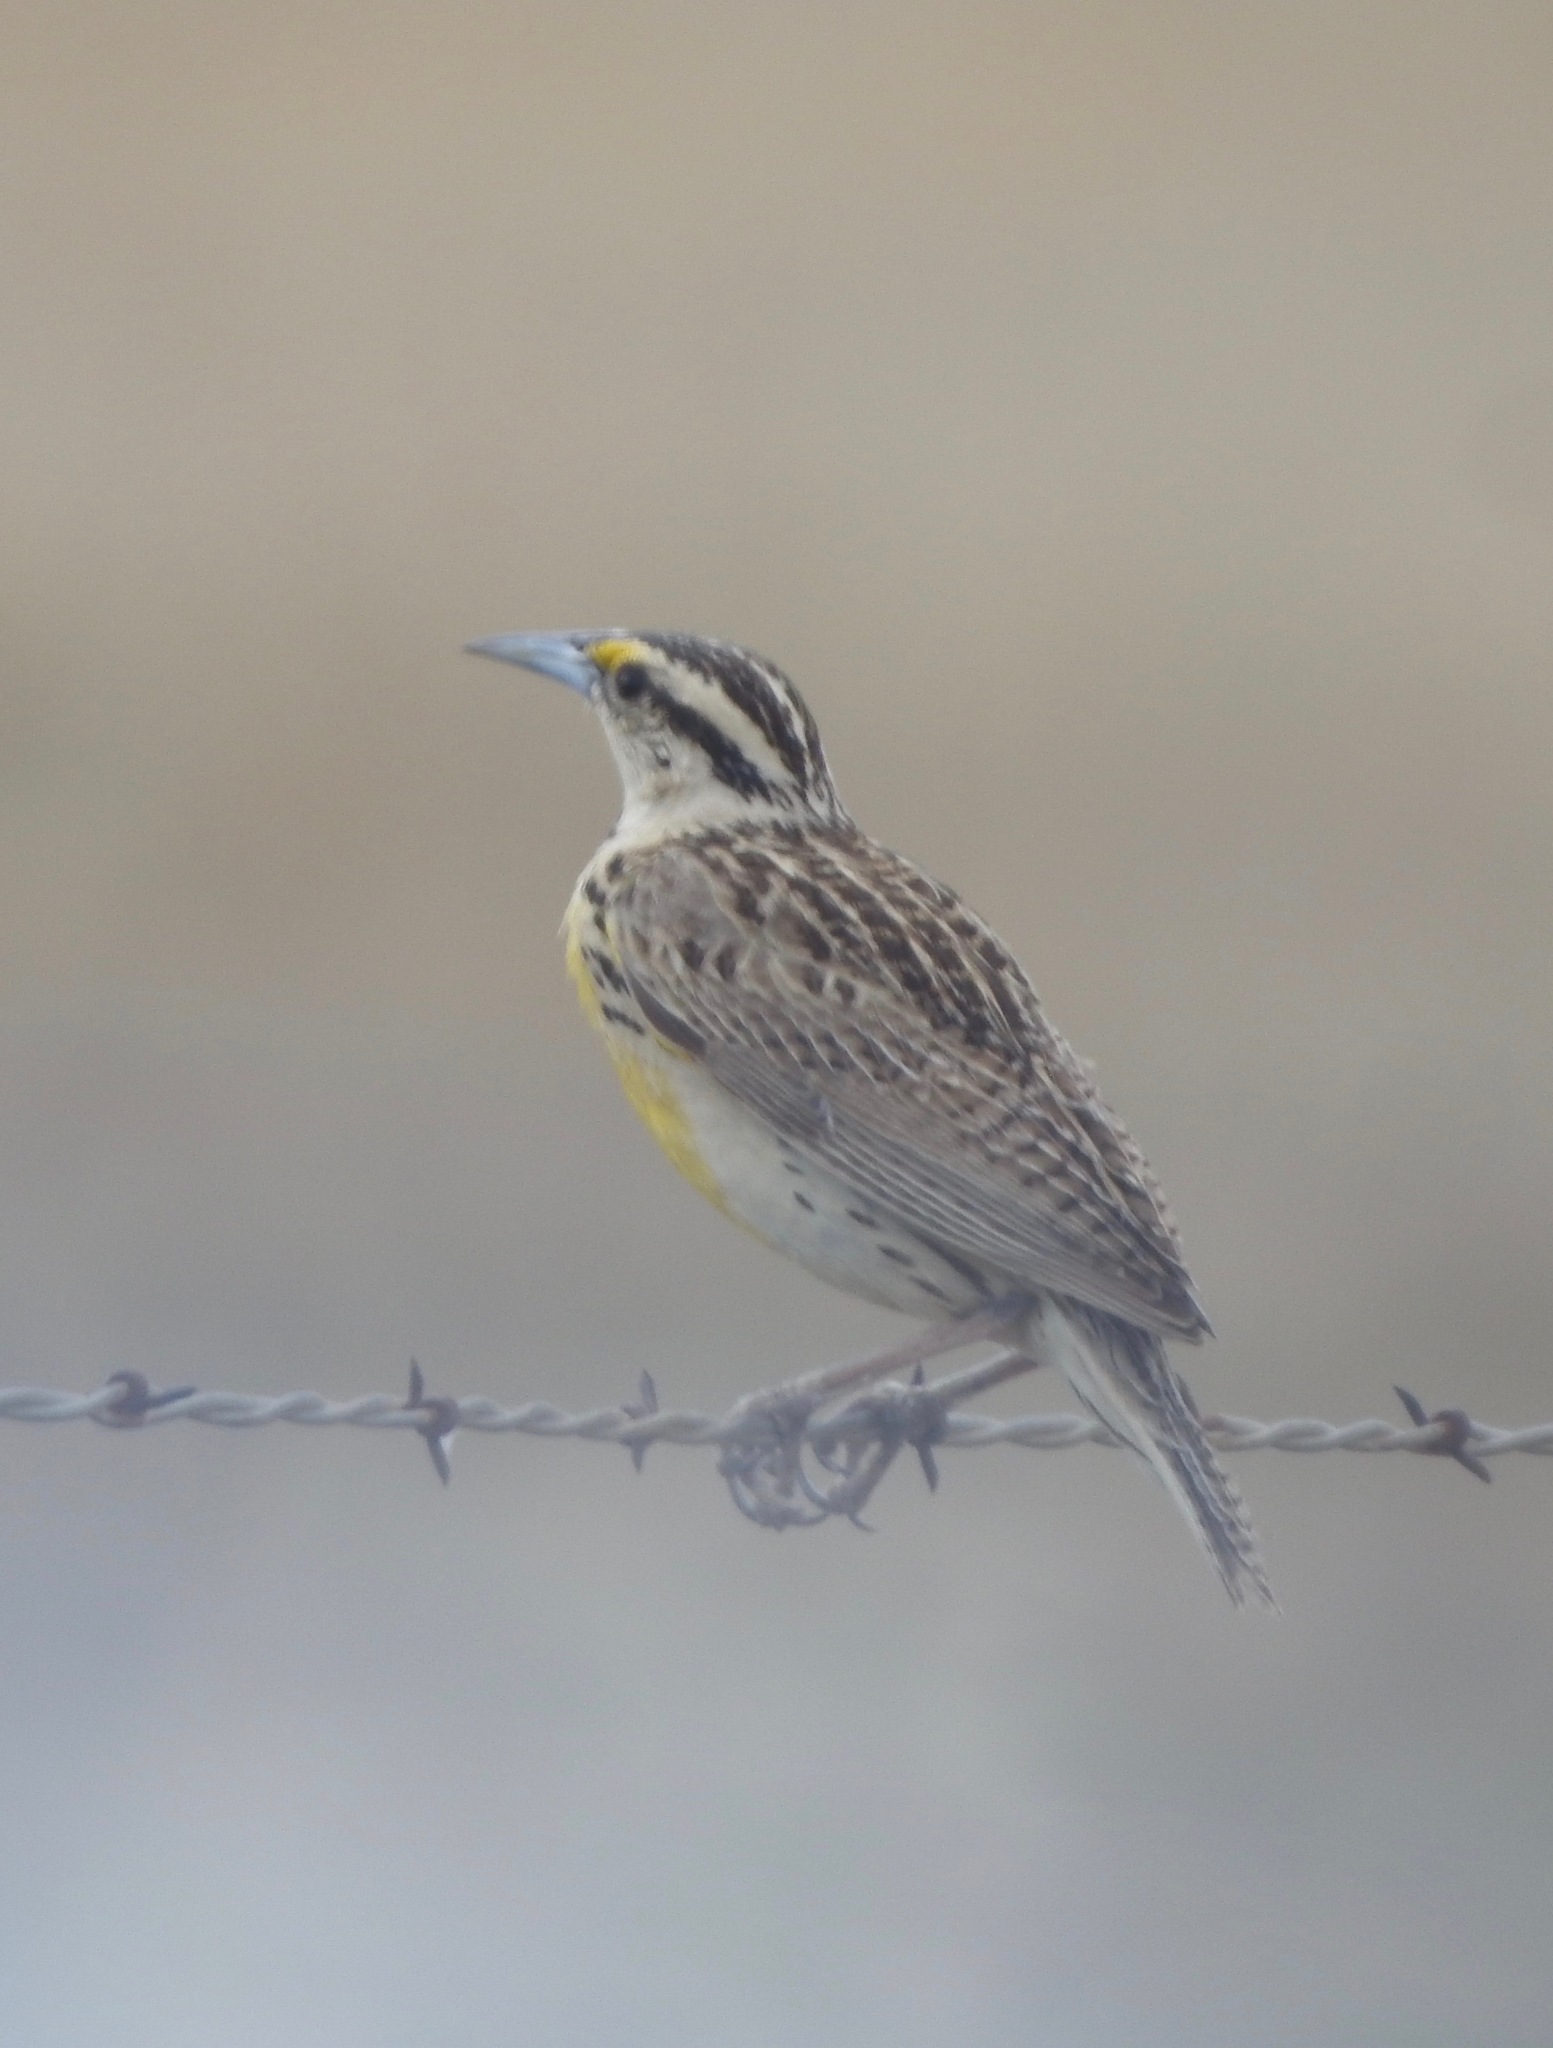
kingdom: Animalia
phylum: Chordata
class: Aves
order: Passeriformes
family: Icteridae
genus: Sturnella
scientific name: Sturnella lilianae
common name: Lilian's meadowlark
